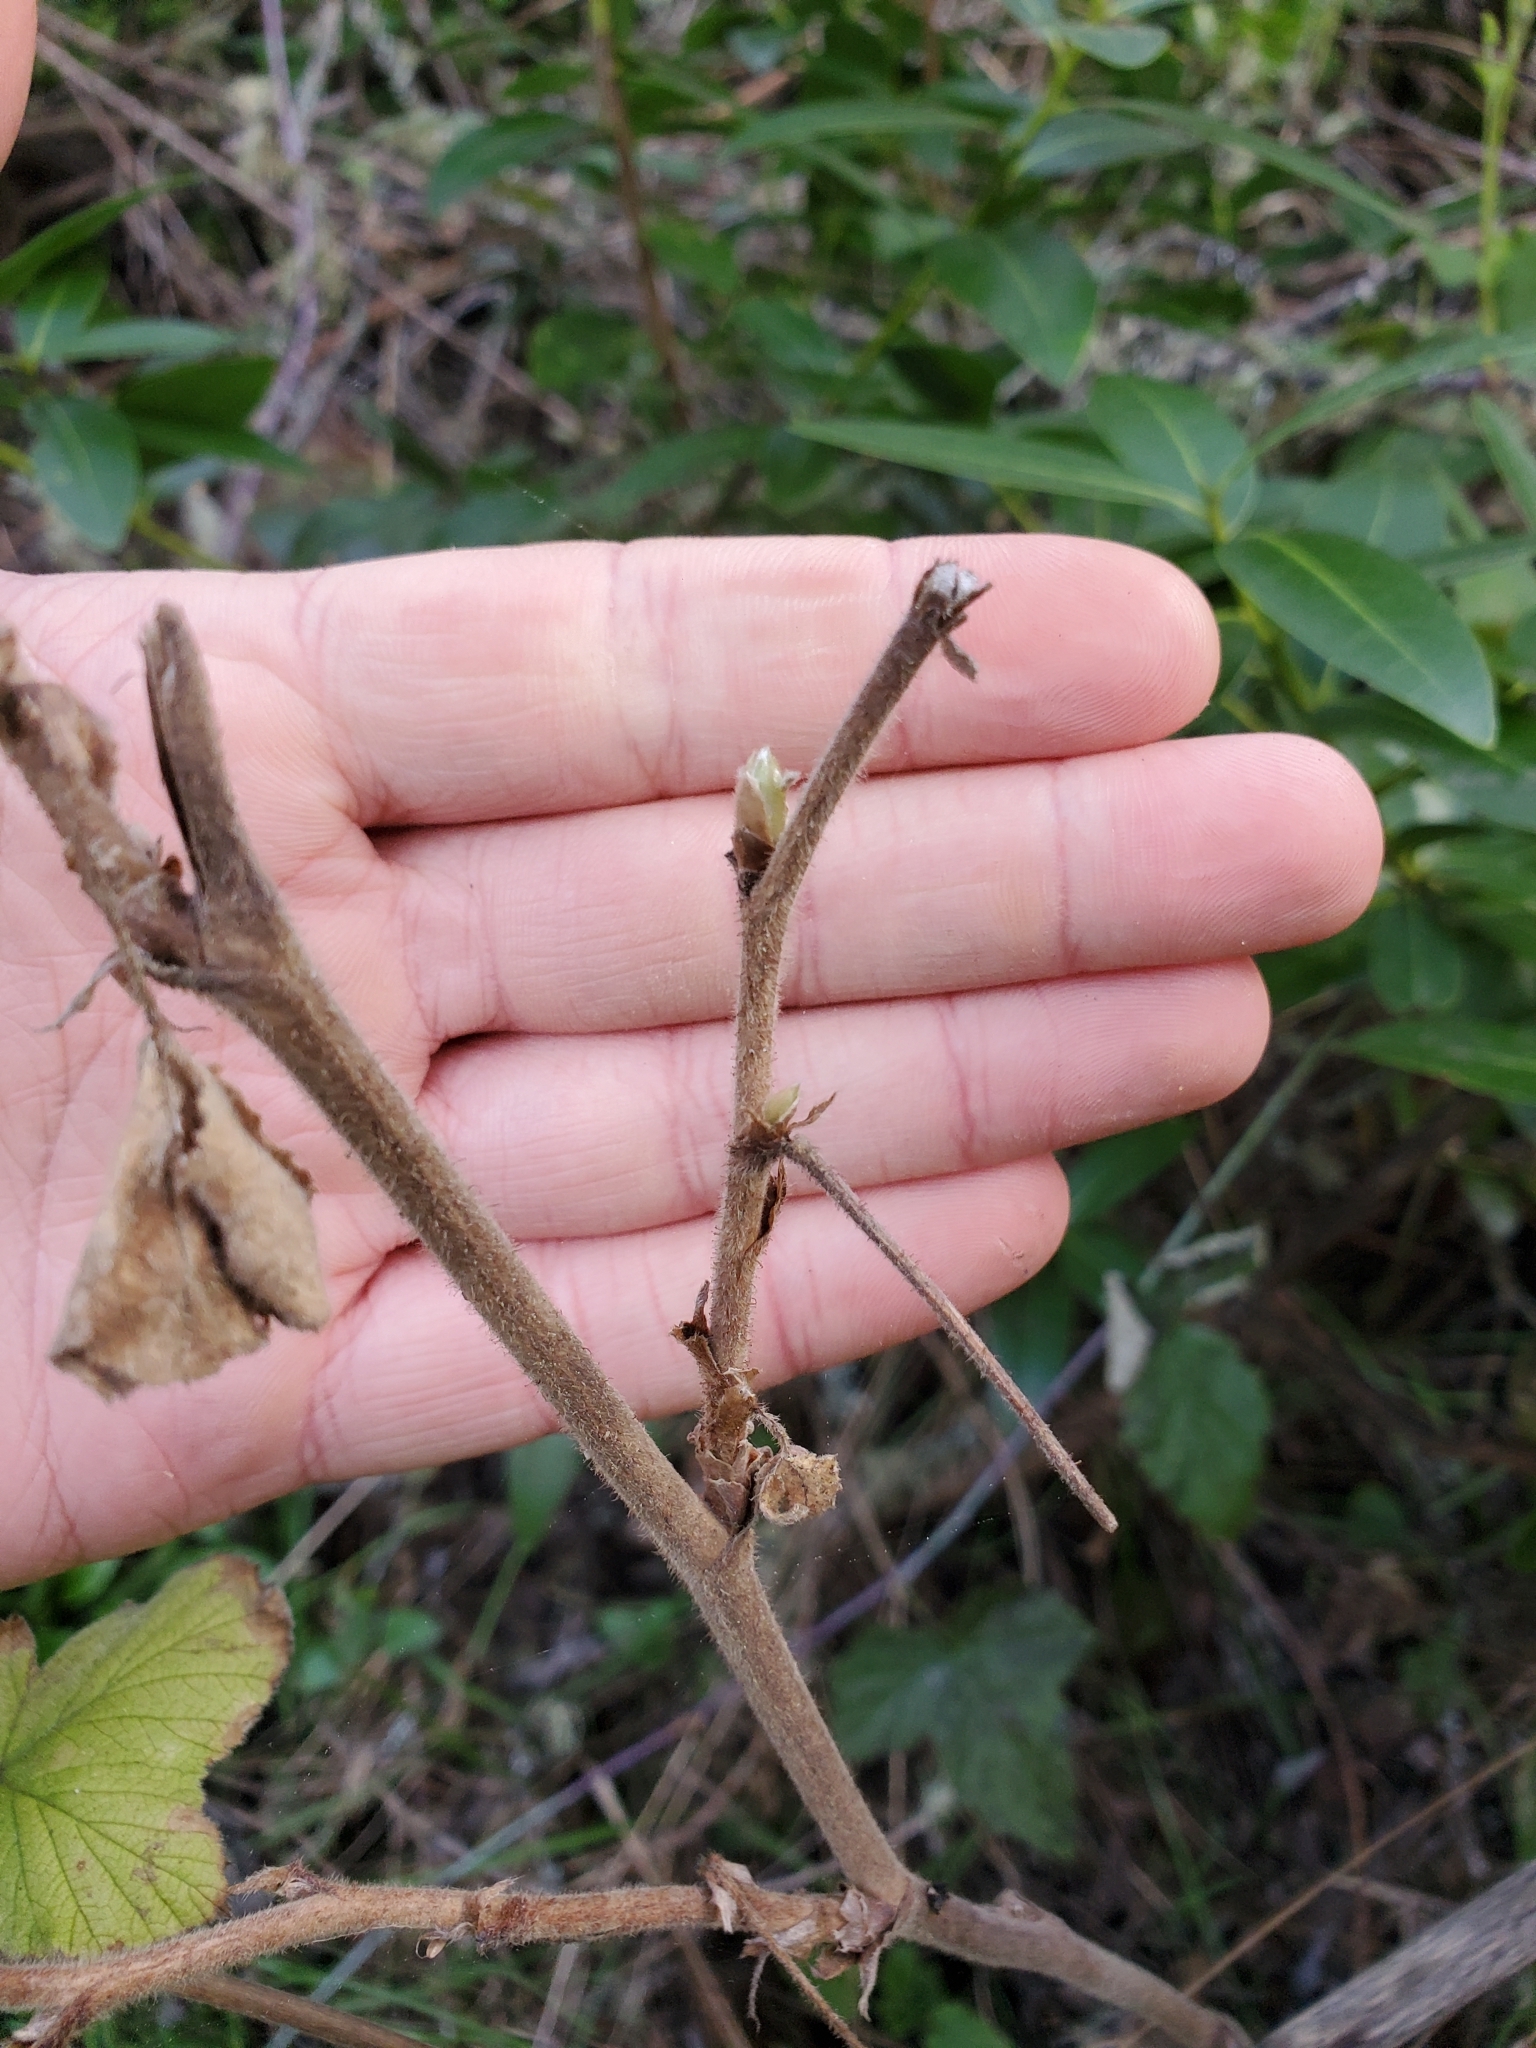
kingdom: Plantae
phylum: Tracheophyta
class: Magnoliopsida
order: Rosales
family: Rosaceae
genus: Rubus
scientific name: Rubus parviflorus
